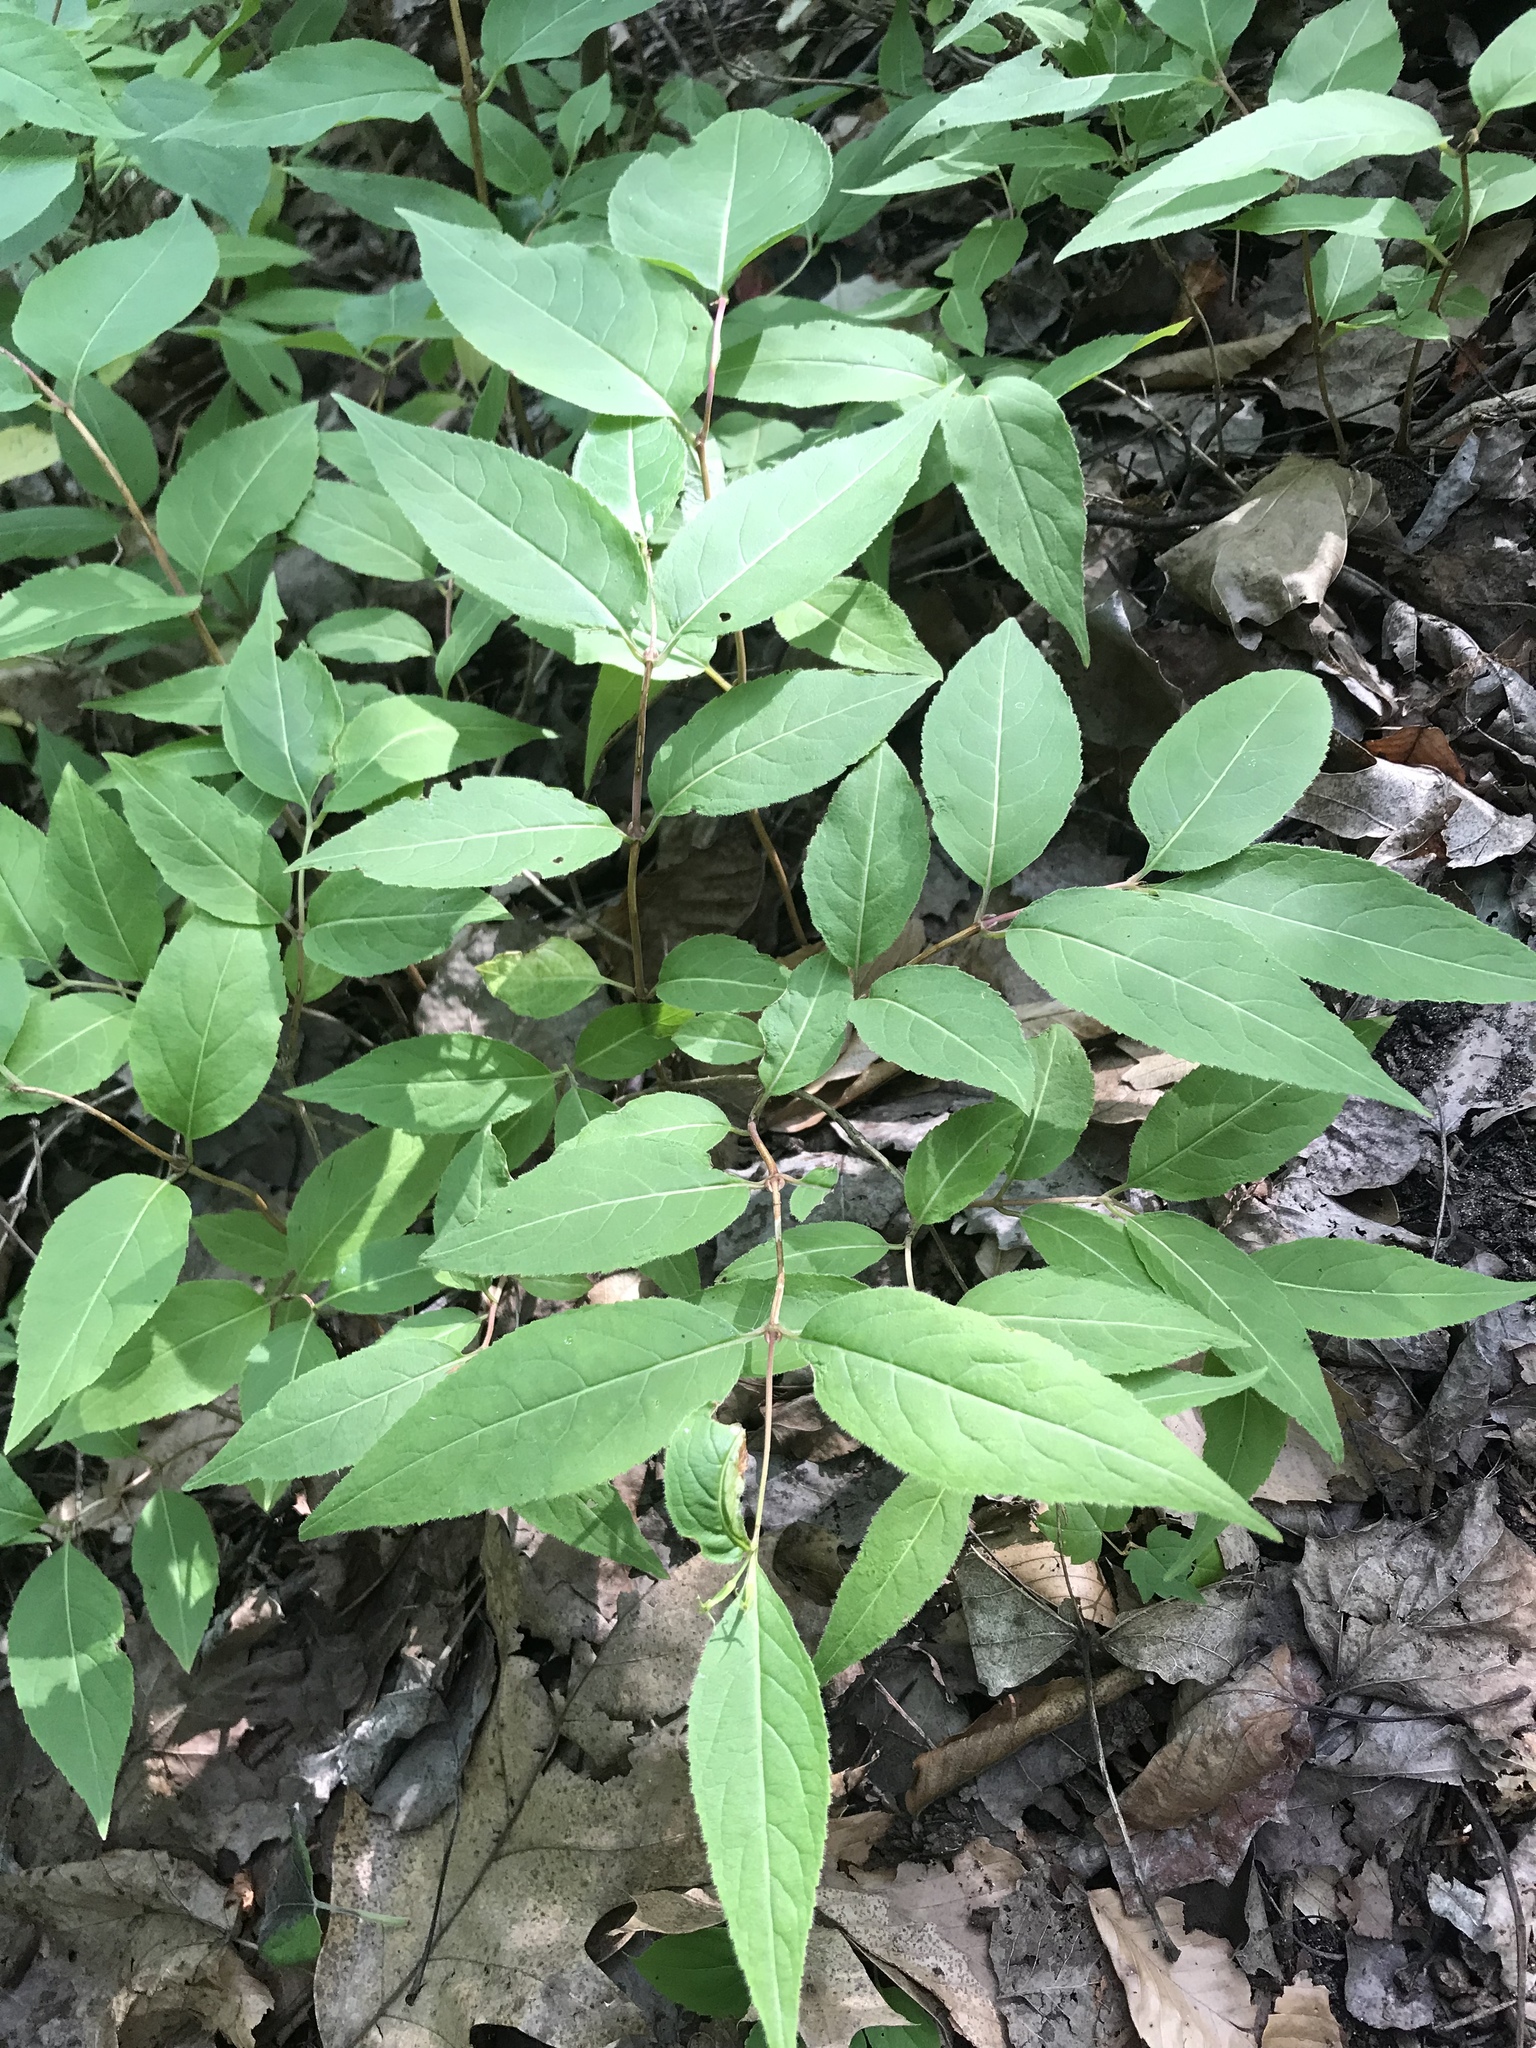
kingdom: Plantae
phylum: Tracheophyta
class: Magnoliopsida
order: Dipsacales
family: Caprifoliaceae
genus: Diervilla
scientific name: Diervilla lonicera
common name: Bush-honeysuckle
